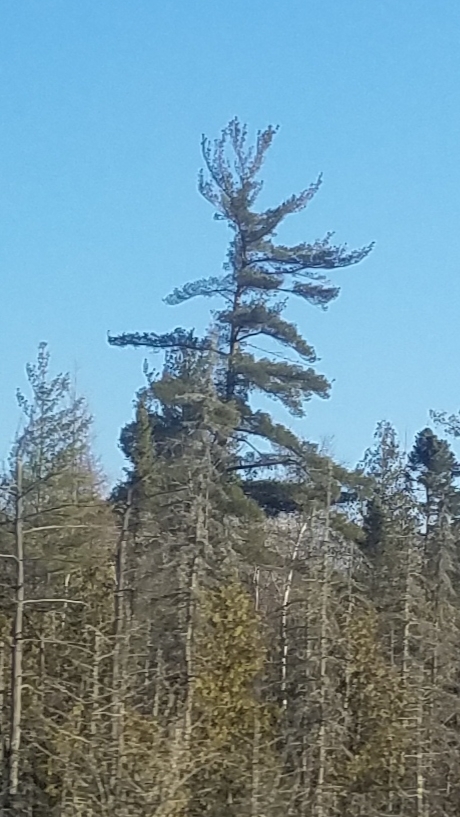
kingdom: Plantae
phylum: Tracheophyta
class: Pinopsida
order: Pinales
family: Pinaceae
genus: Pinus
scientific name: Pinus strobus
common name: Weymouth pine
